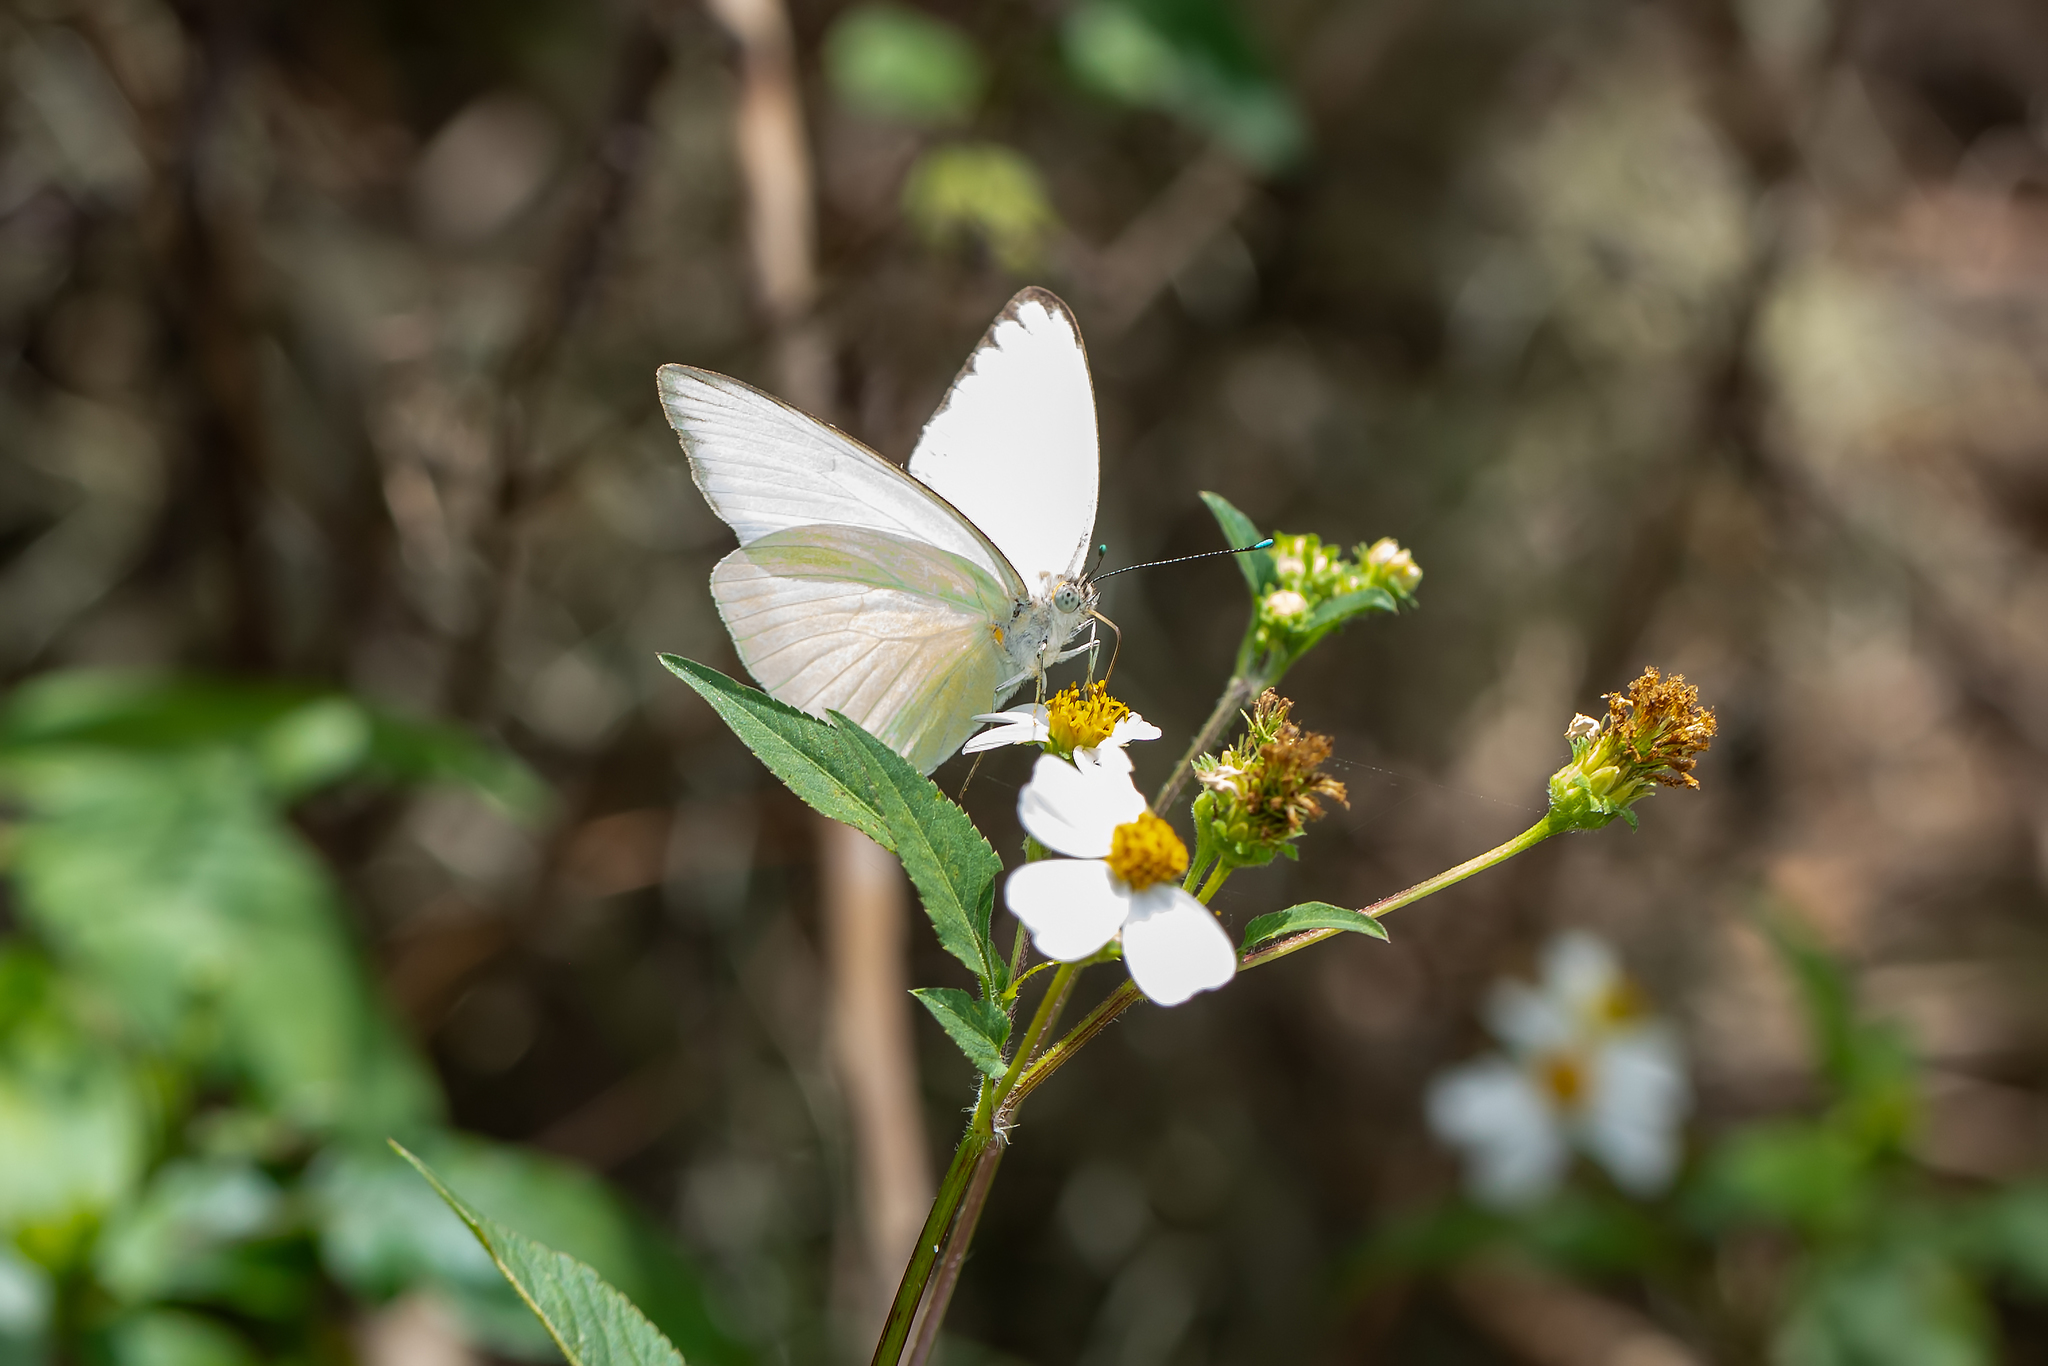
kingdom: Animalia
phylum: Arthropoda
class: Insecta
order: Lepidoptera
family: Pieridae
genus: Ascia
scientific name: Ascia monuste
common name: Great southern white
